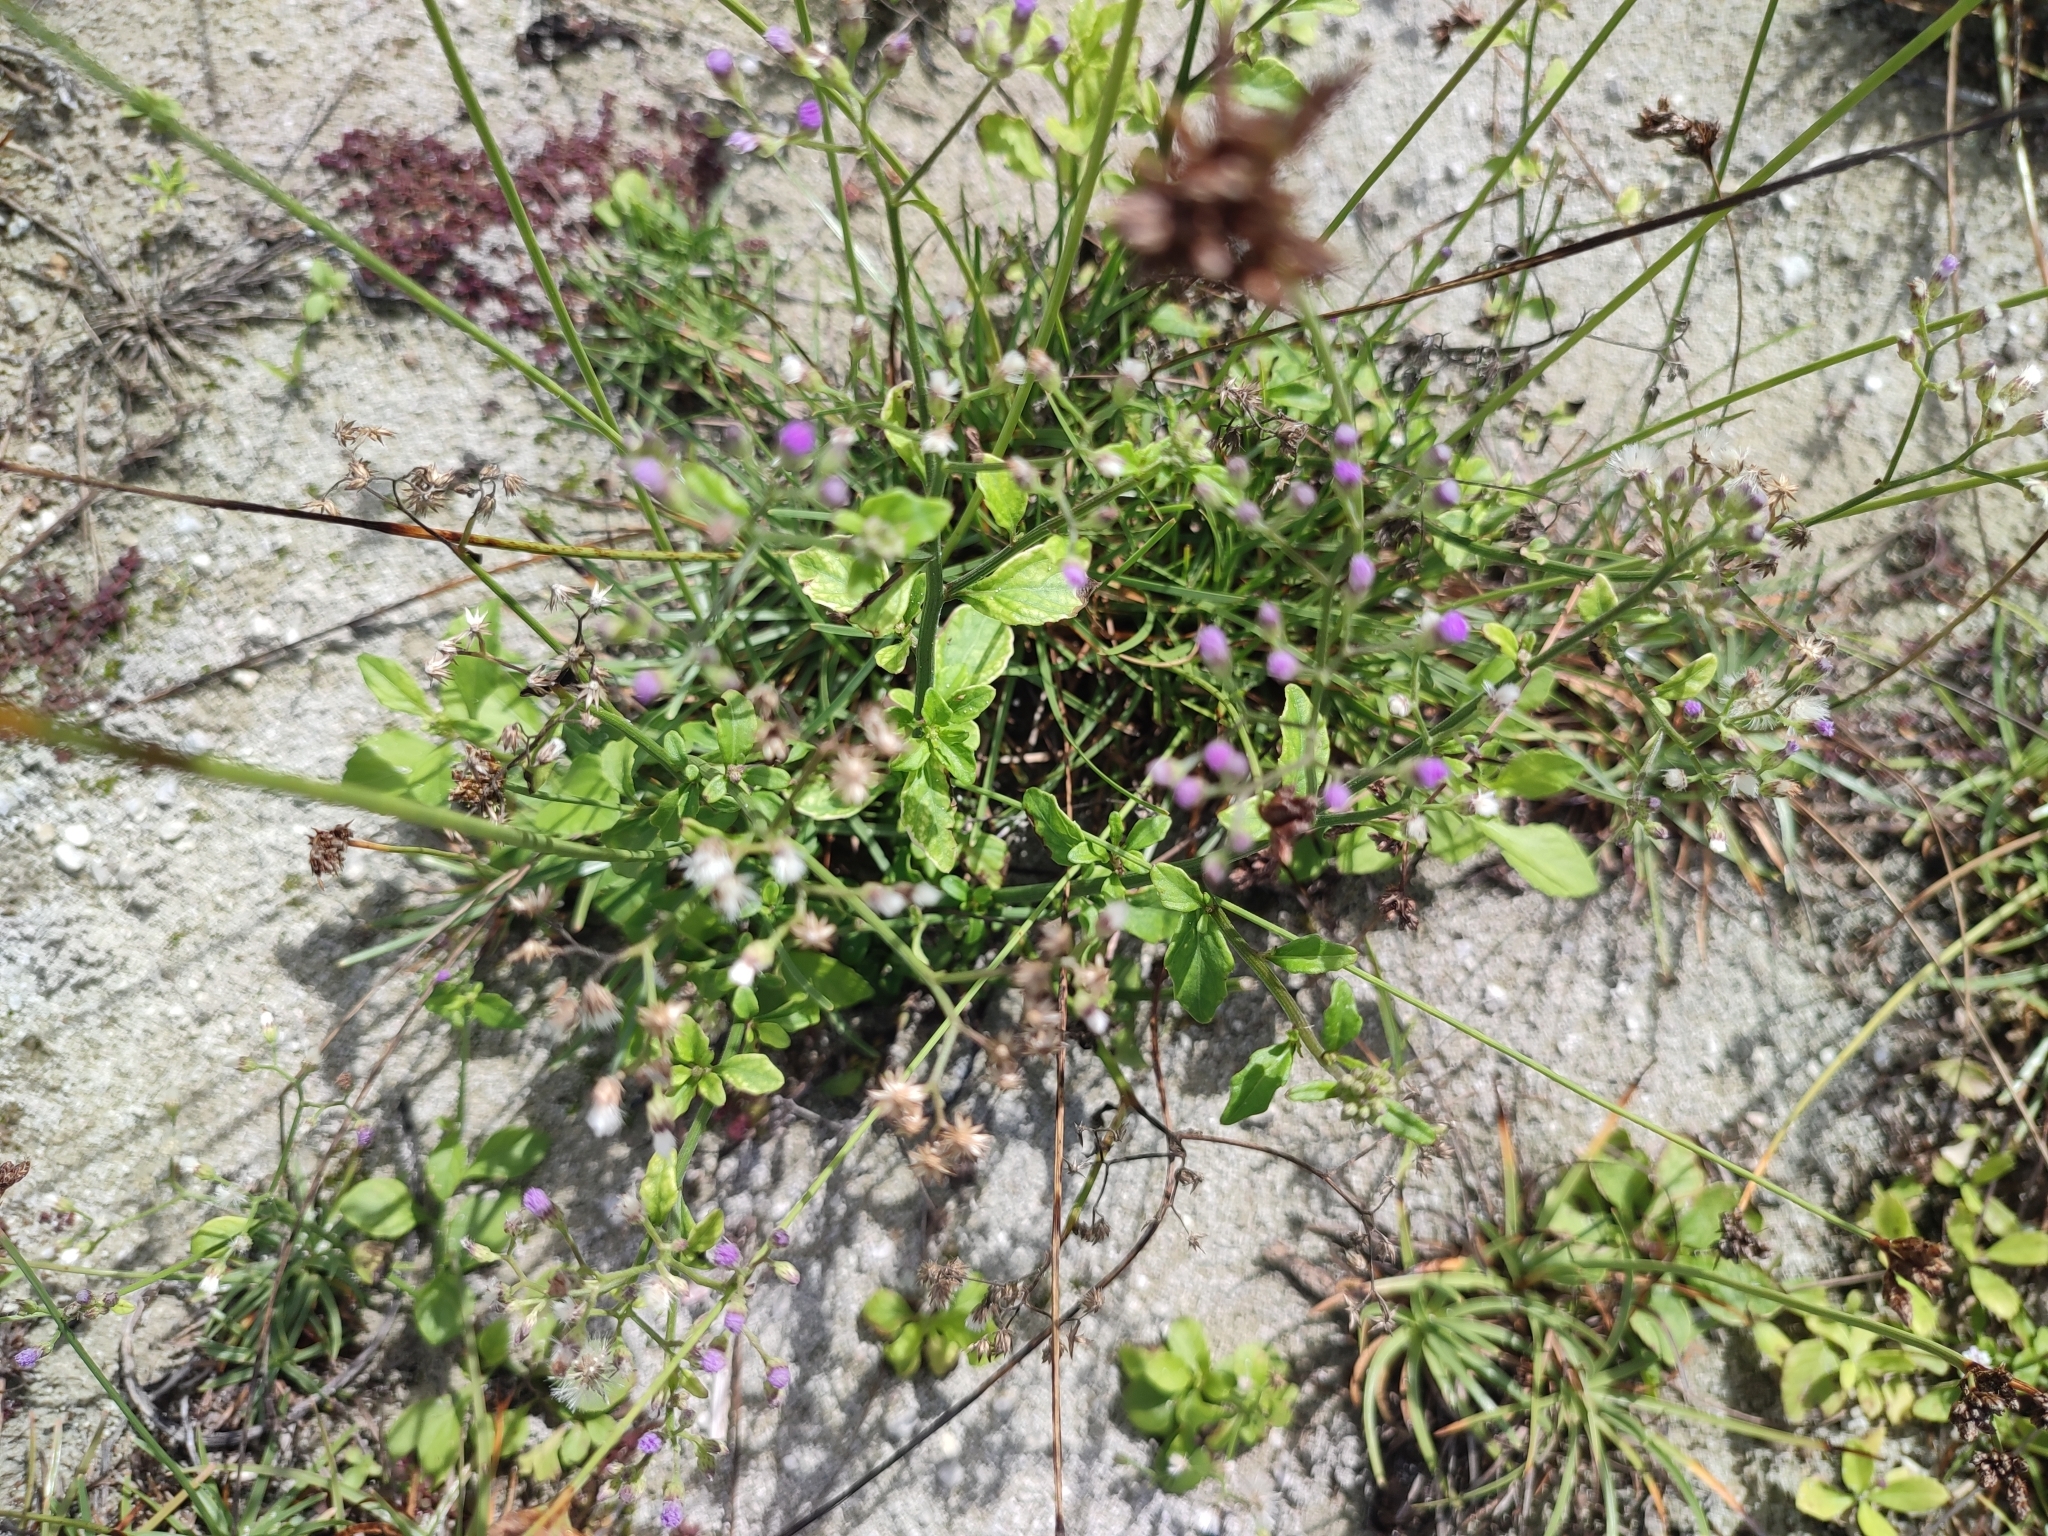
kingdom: Plantae
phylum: Tracheophyta
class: Magnoliopsida
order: Asterales
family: Asteraceae
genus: Cyanthillium
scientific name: Cyanthillium cinereum
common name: Little ironweed
